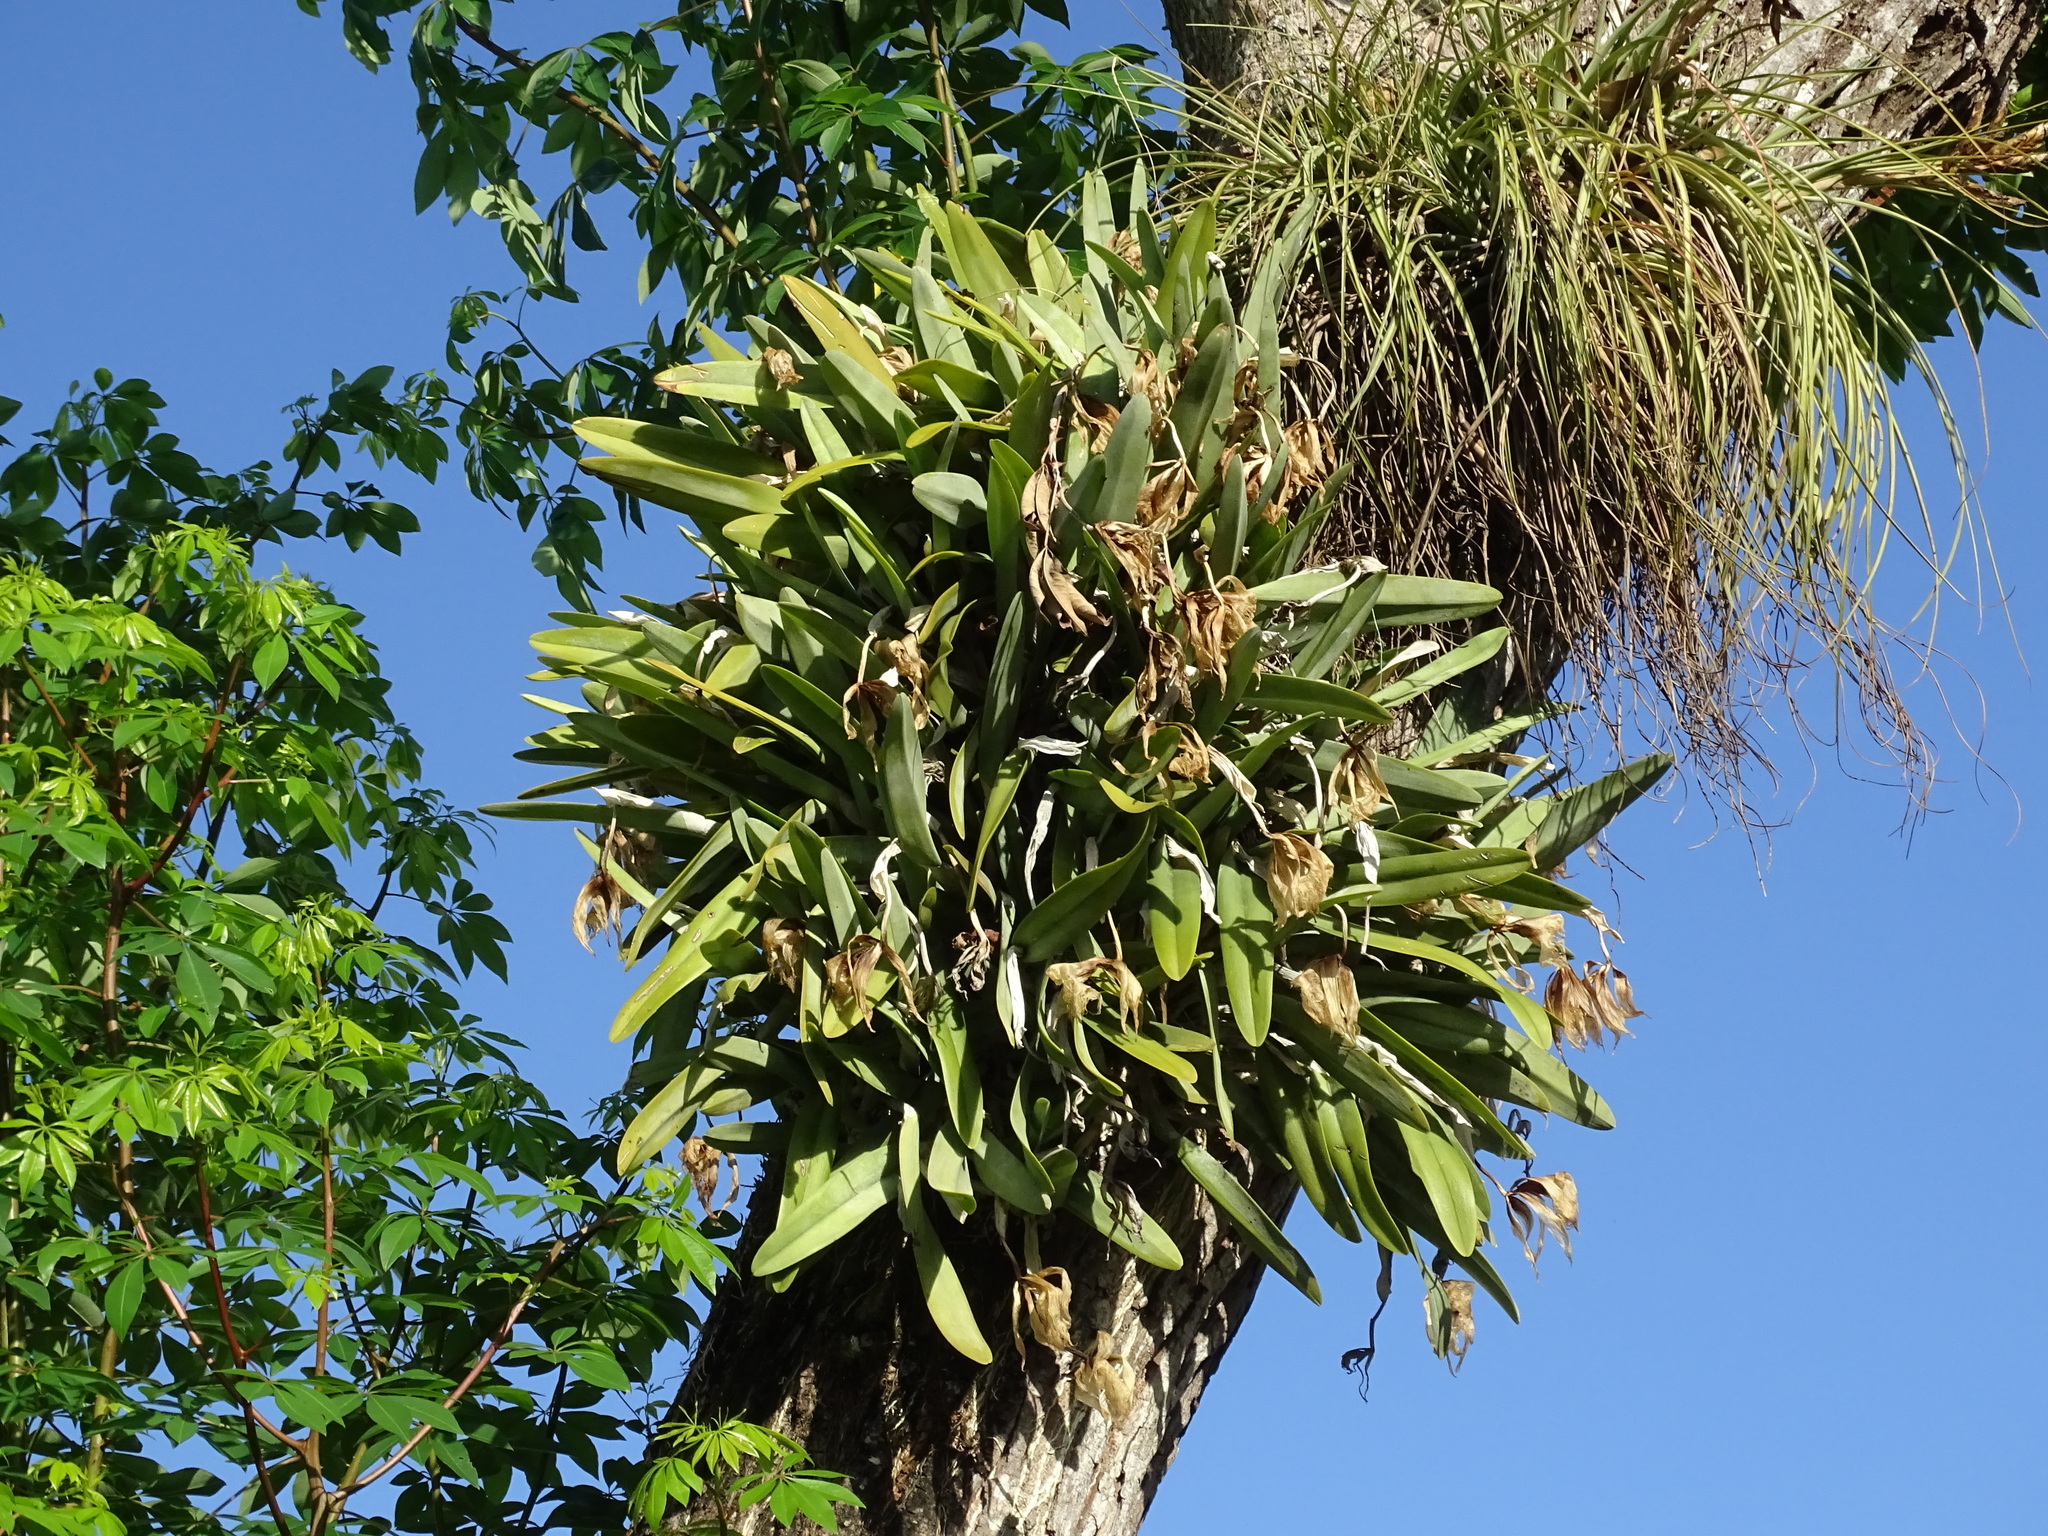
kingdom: Plantae
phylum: Tracheophyta
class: Liliopsida
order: Asparagales
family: Orchidaceae
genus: Rhyncholaelia
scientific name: Rhyncholaelia digbyana
